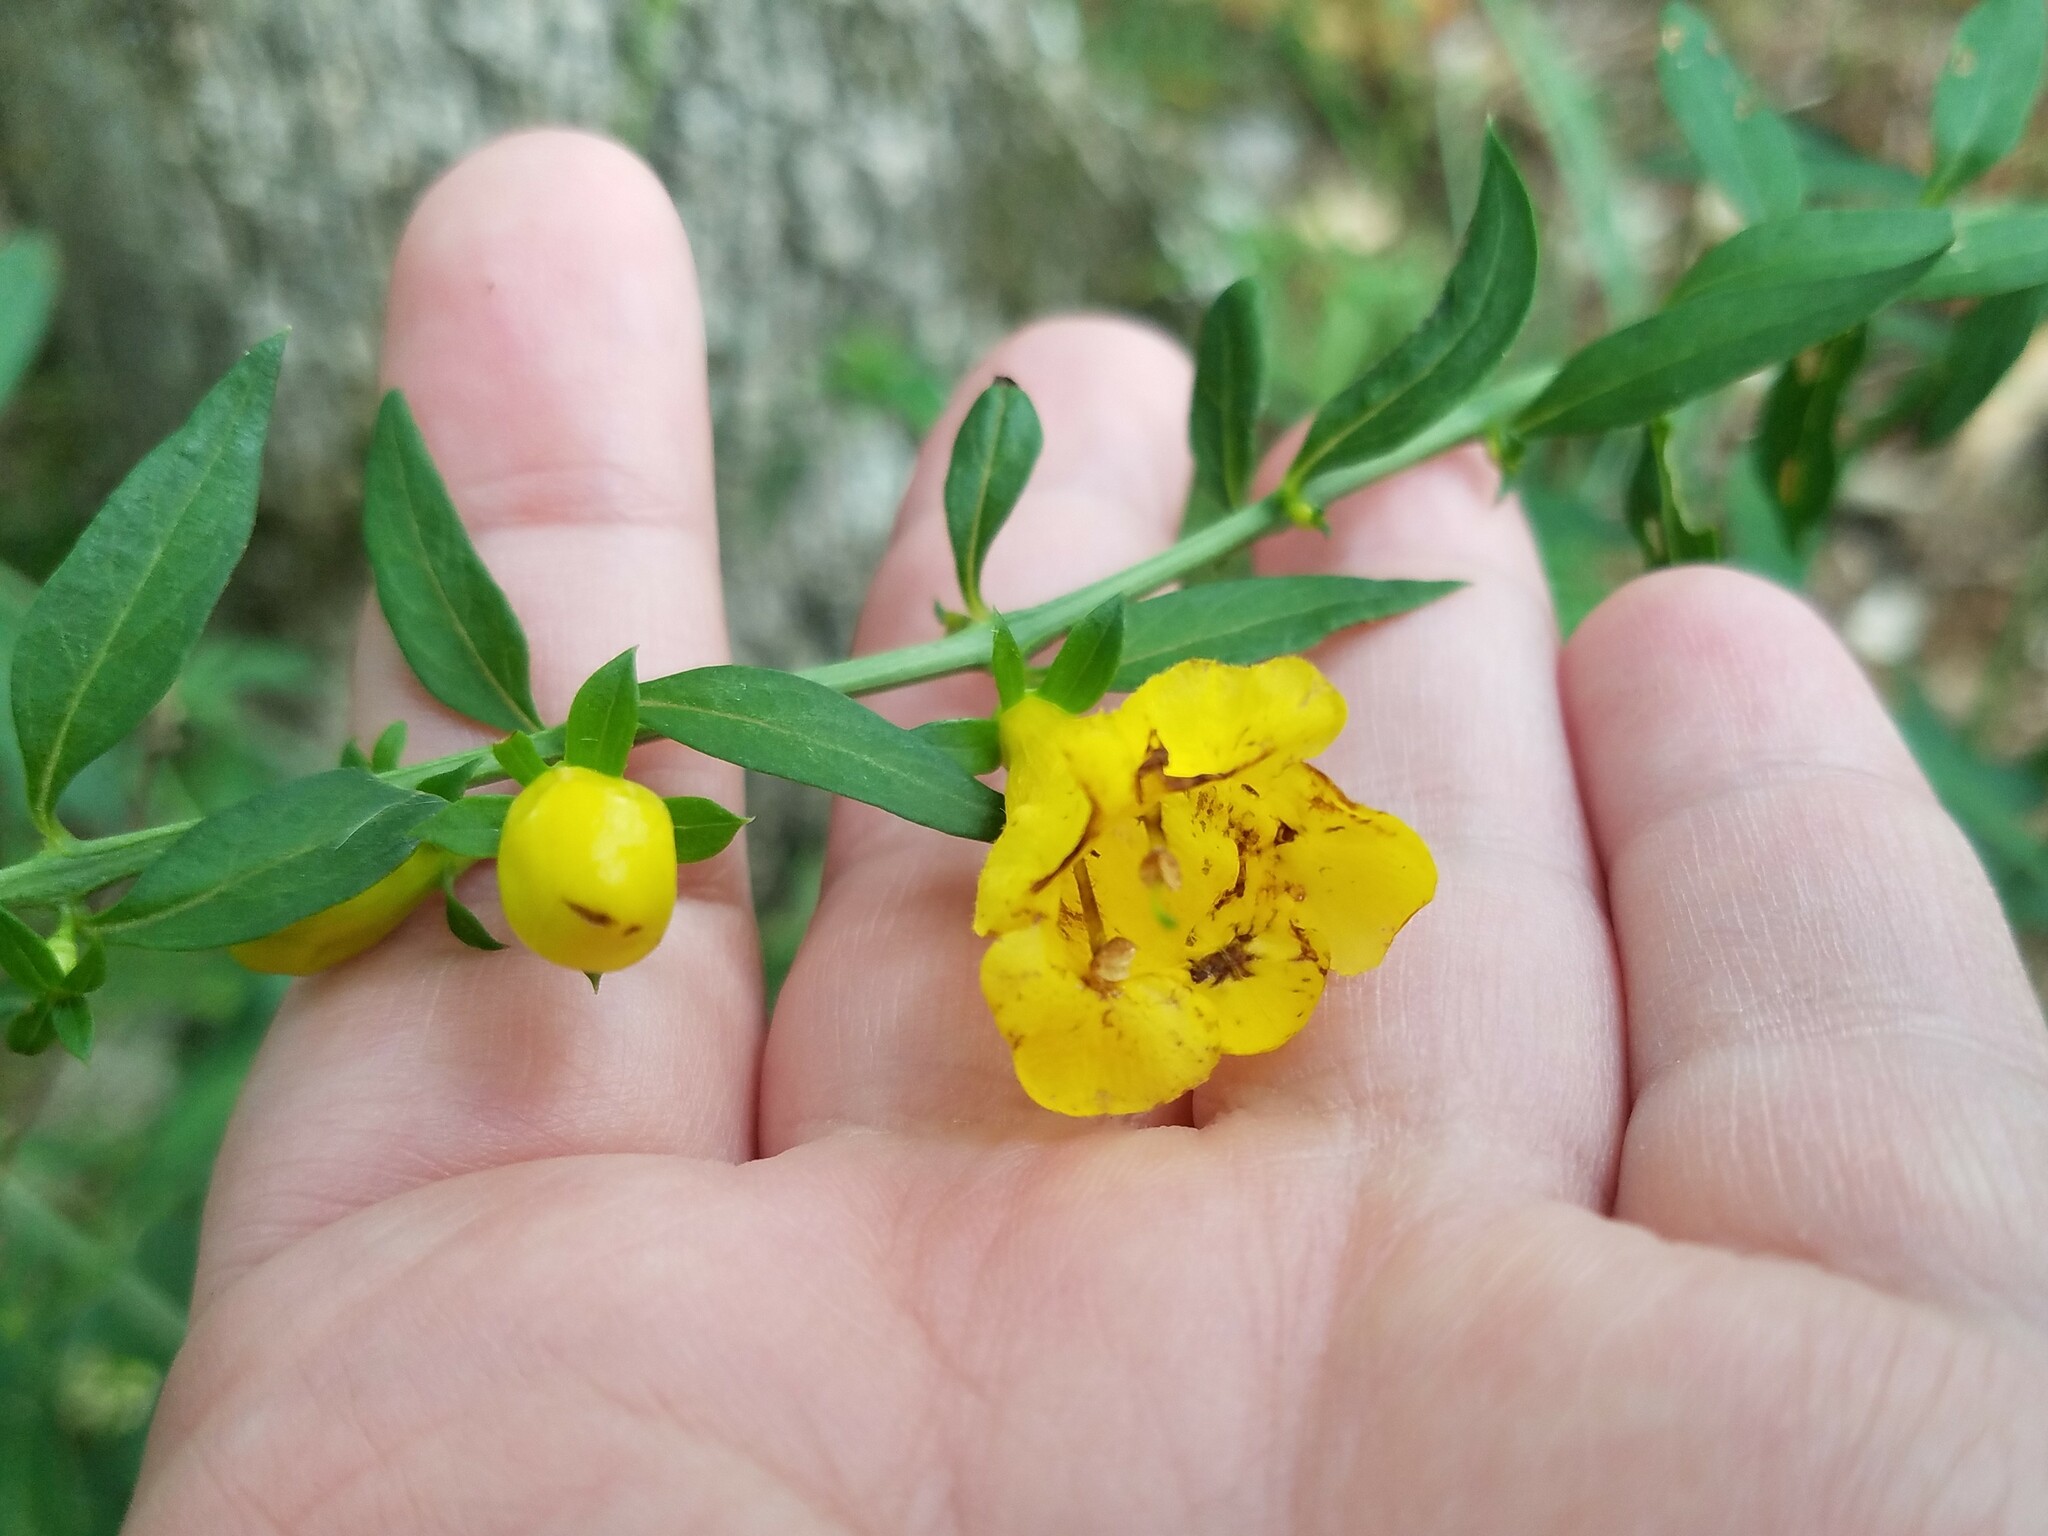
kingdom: Plantae
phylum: Tracheophyta
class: Magnoliopsida
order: Lamiales
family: Orobanchaceae
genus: Aureolaria
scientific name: Aureolaria levigata
